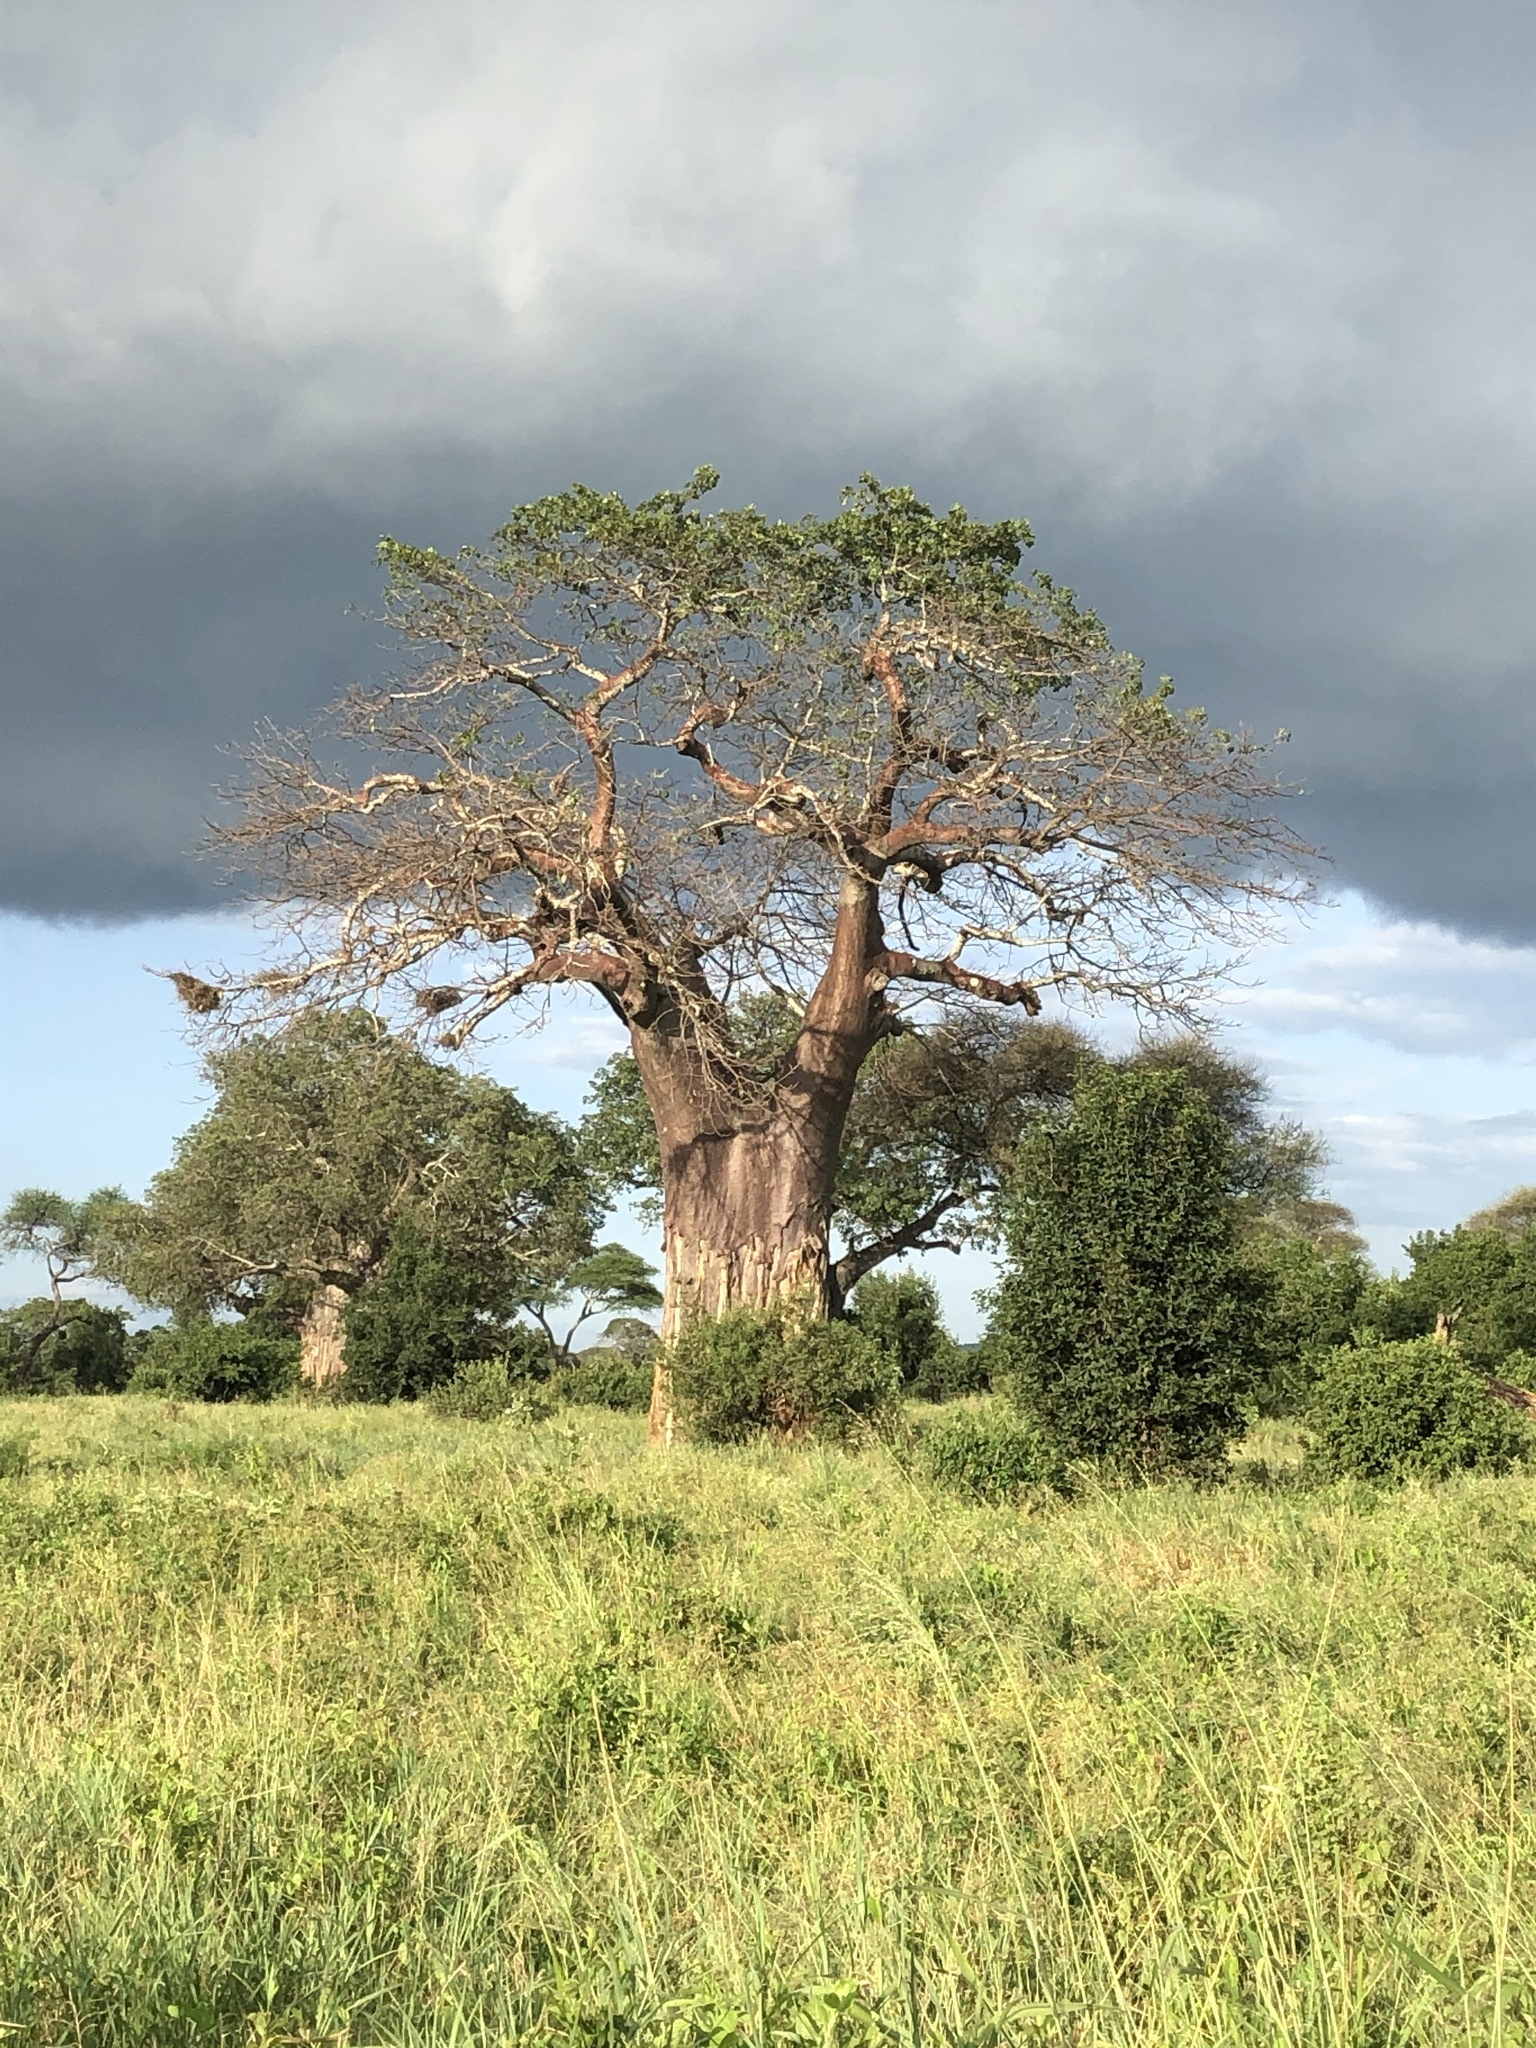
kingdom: Plantae
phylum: Tracheophyta
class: Magnoliopsida
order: Malvales
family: Malvaceae
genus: Adansonia
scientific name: Adansonia digitata
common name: Dead-rat-tree
